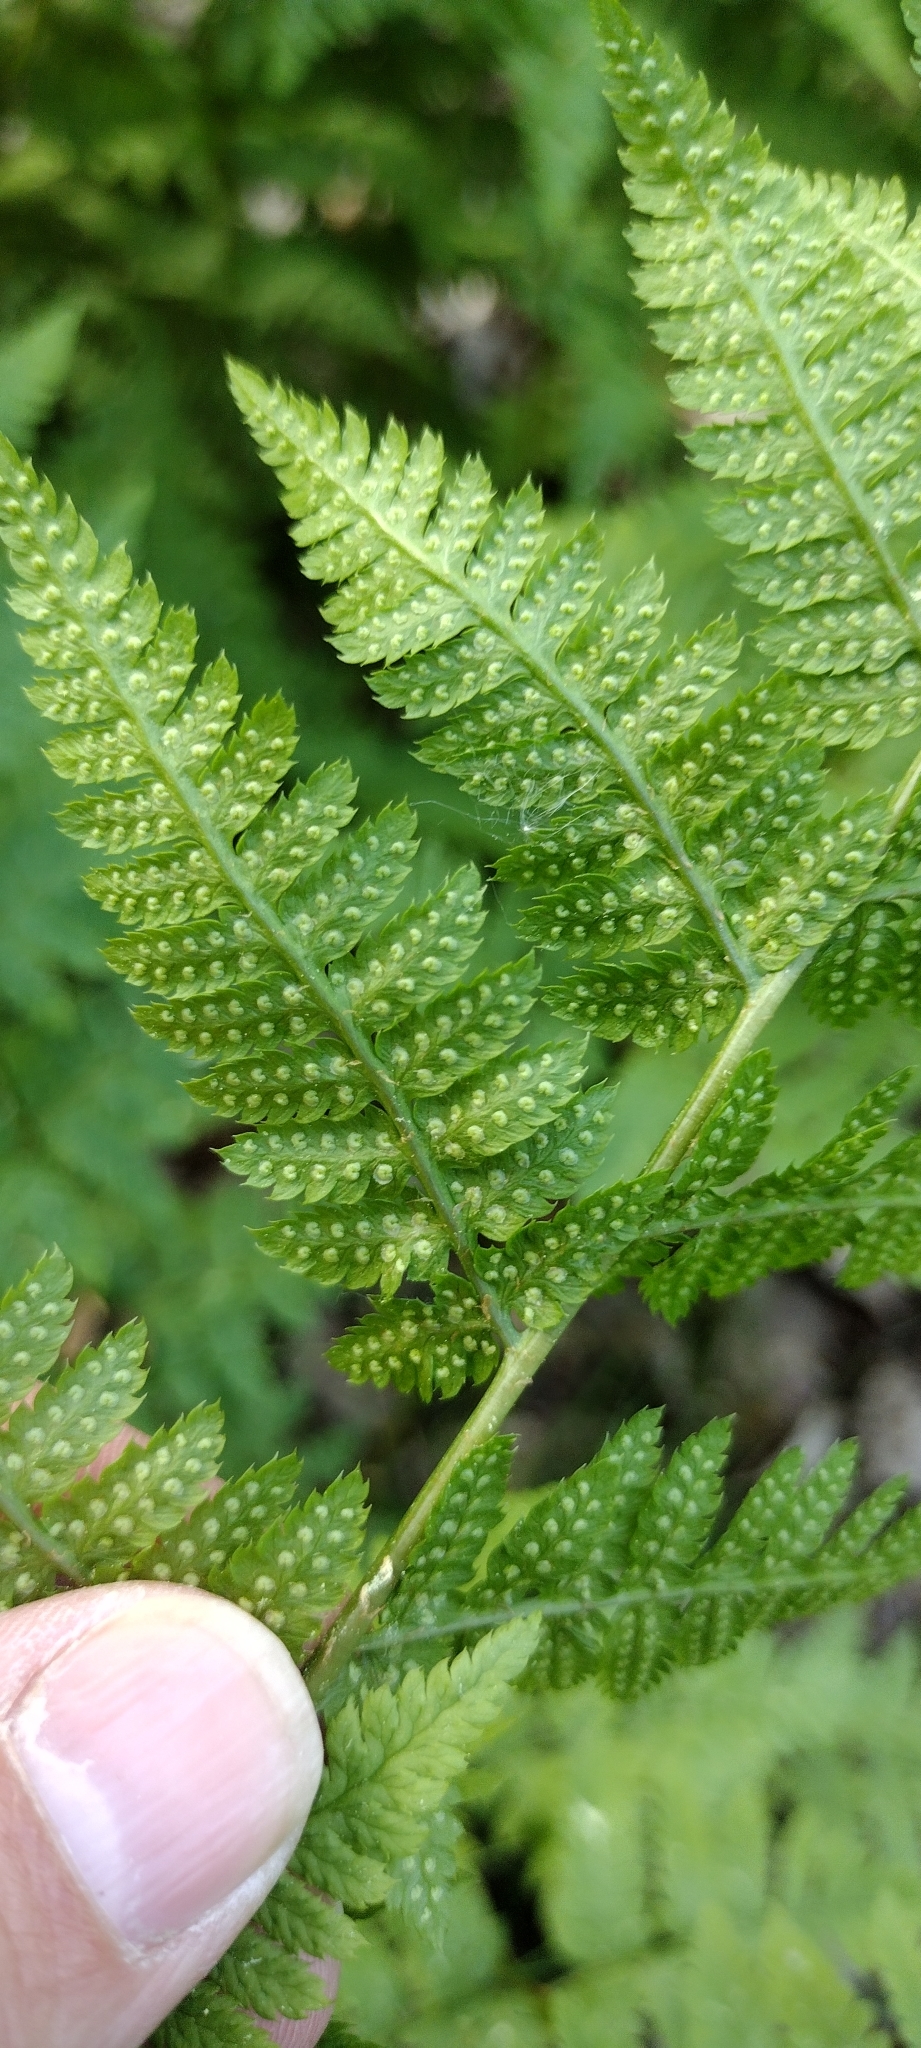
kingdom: Plantae
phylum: Tracheophyta
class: Polypodiopsida
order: Polypodiales
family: Dryopteridaceae
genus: Dryopteris
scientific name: Dryopteris carthusiana
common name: Narrow buckler-fern
